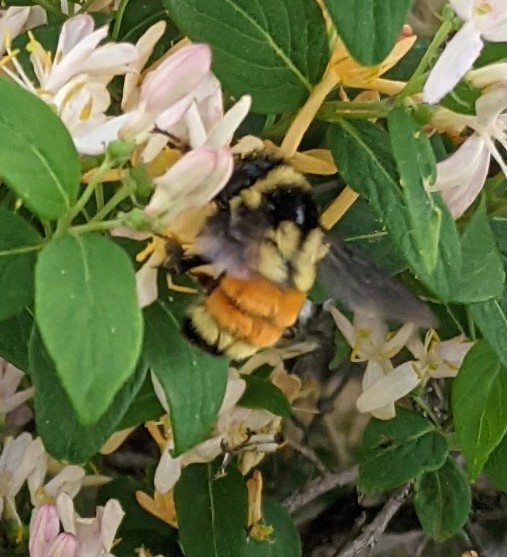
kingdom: Animalia
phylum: Arthropoda
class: Insecta
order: Hymenoptera
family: Apidae
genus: Bombus
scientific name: Bombus ternarius
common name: Tri-colored bumble bee
